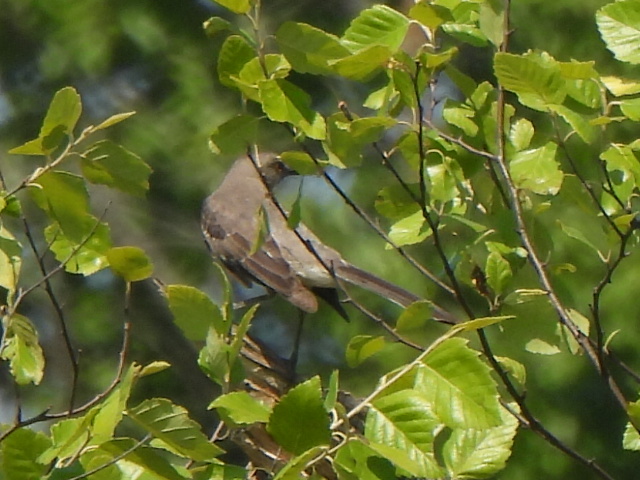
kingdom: Animalia
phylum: Chordata
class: Aves
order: Passeriformes
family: Mimidae
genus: Mimus
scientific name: Mimus polyglottos
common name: Northern mockingbird
